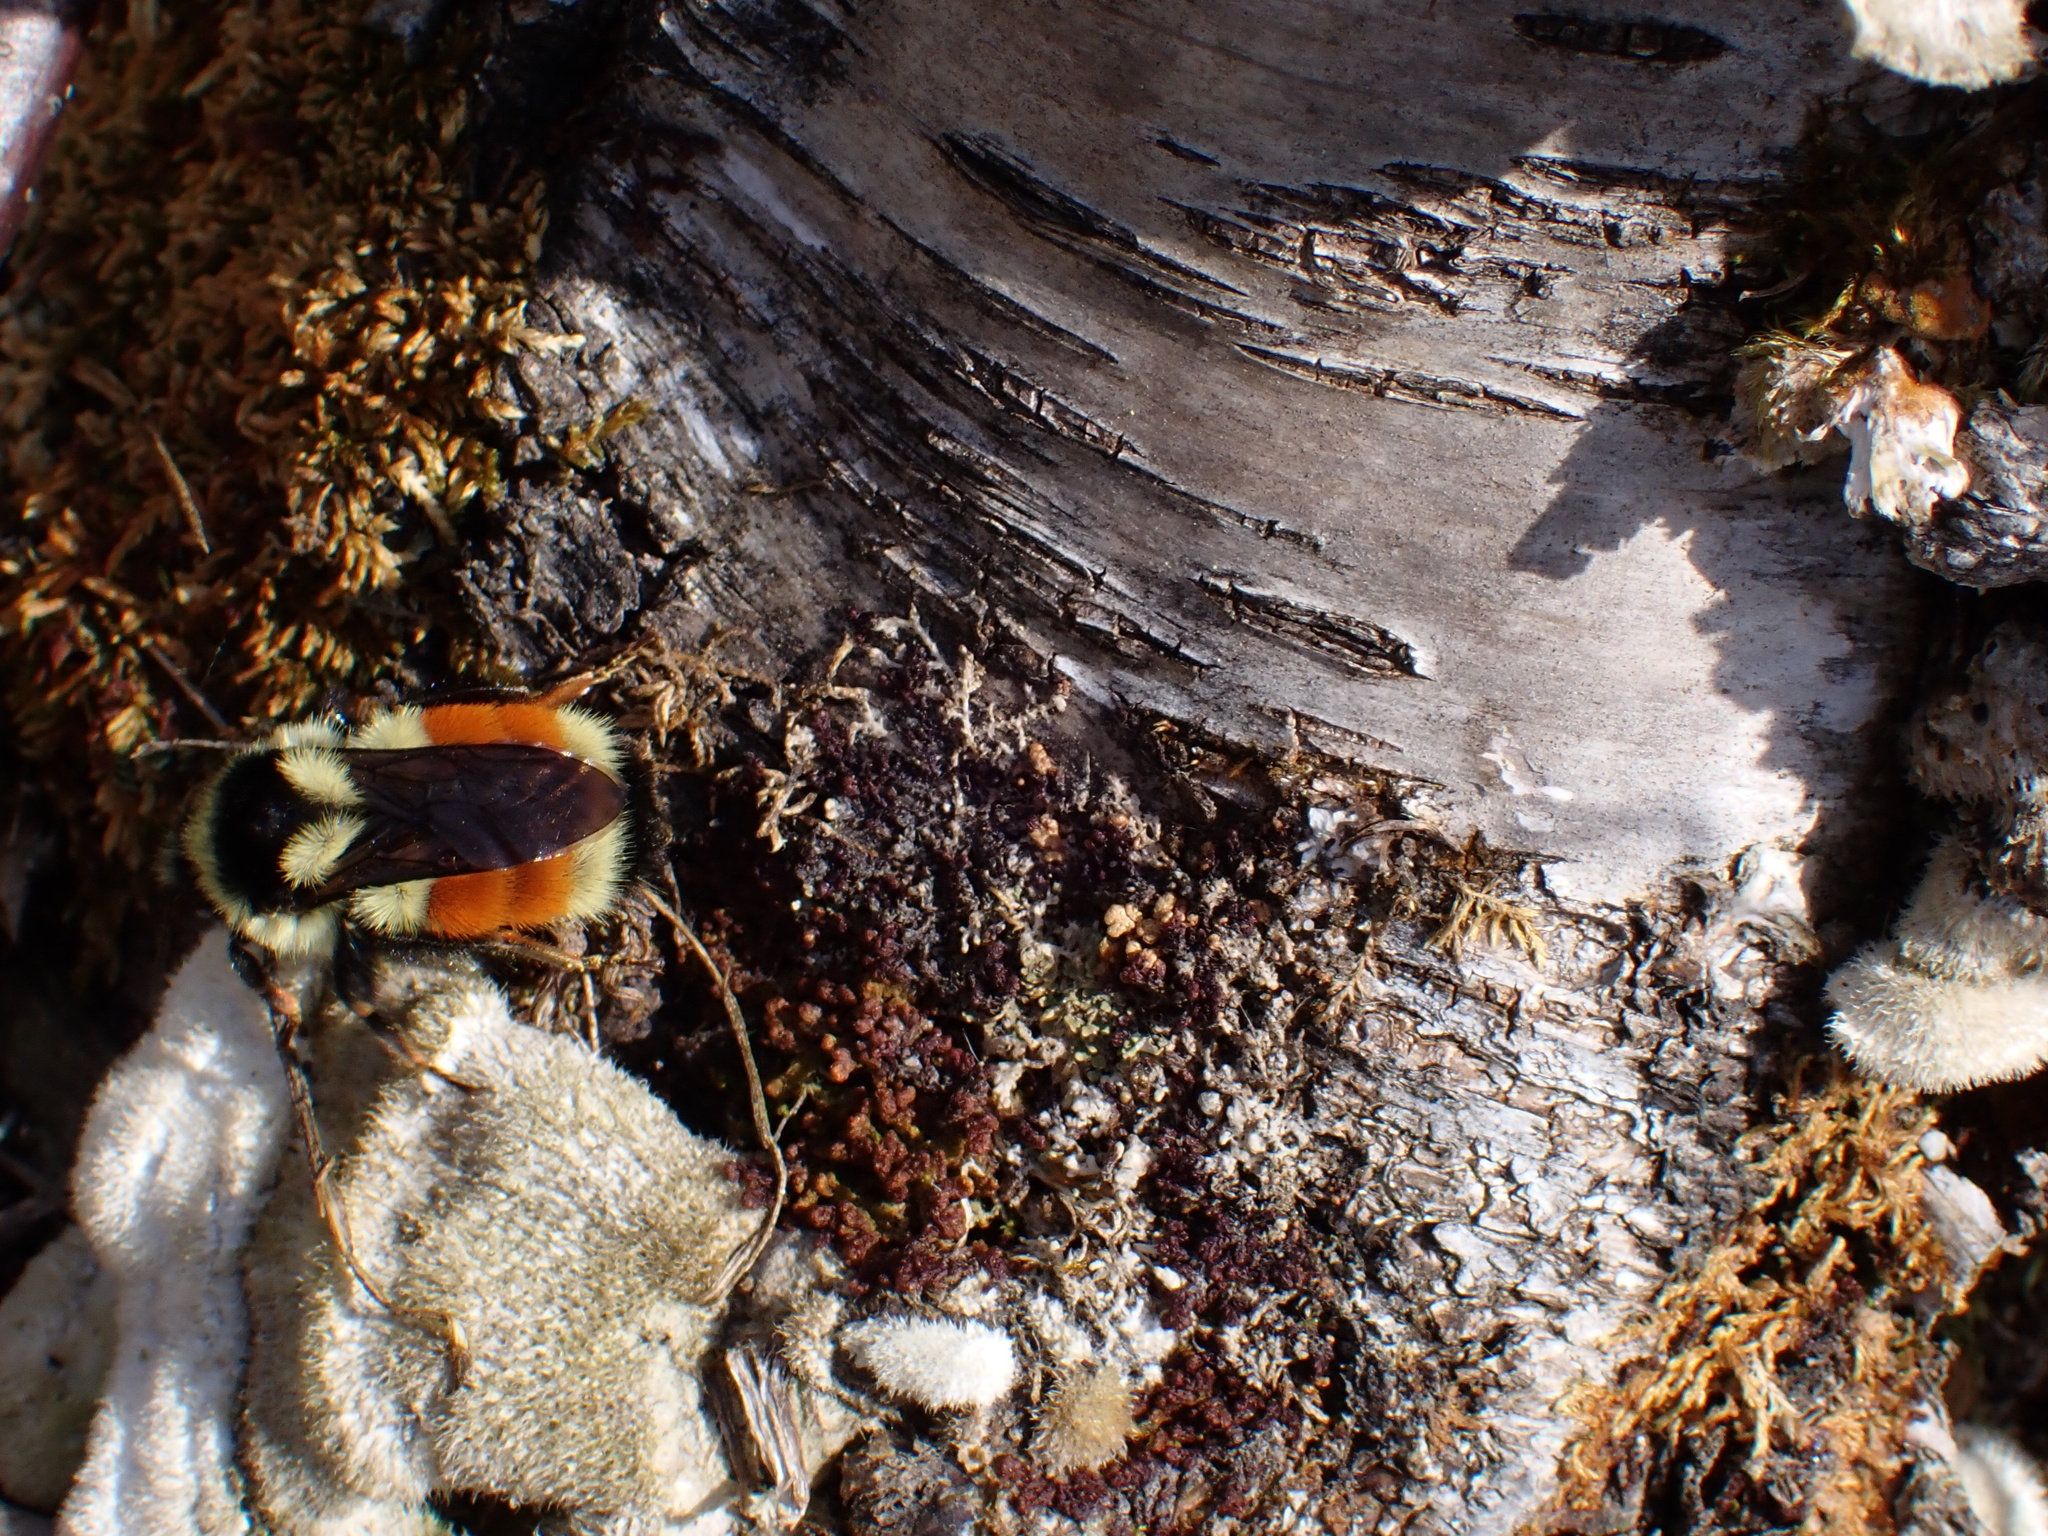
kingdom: Animalia
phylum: Arthropoda
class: Insecta
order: Hymenoptera
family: Apidae
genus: Bombus
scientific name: Bombus ternarius
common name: Tri-colored bumble bee
